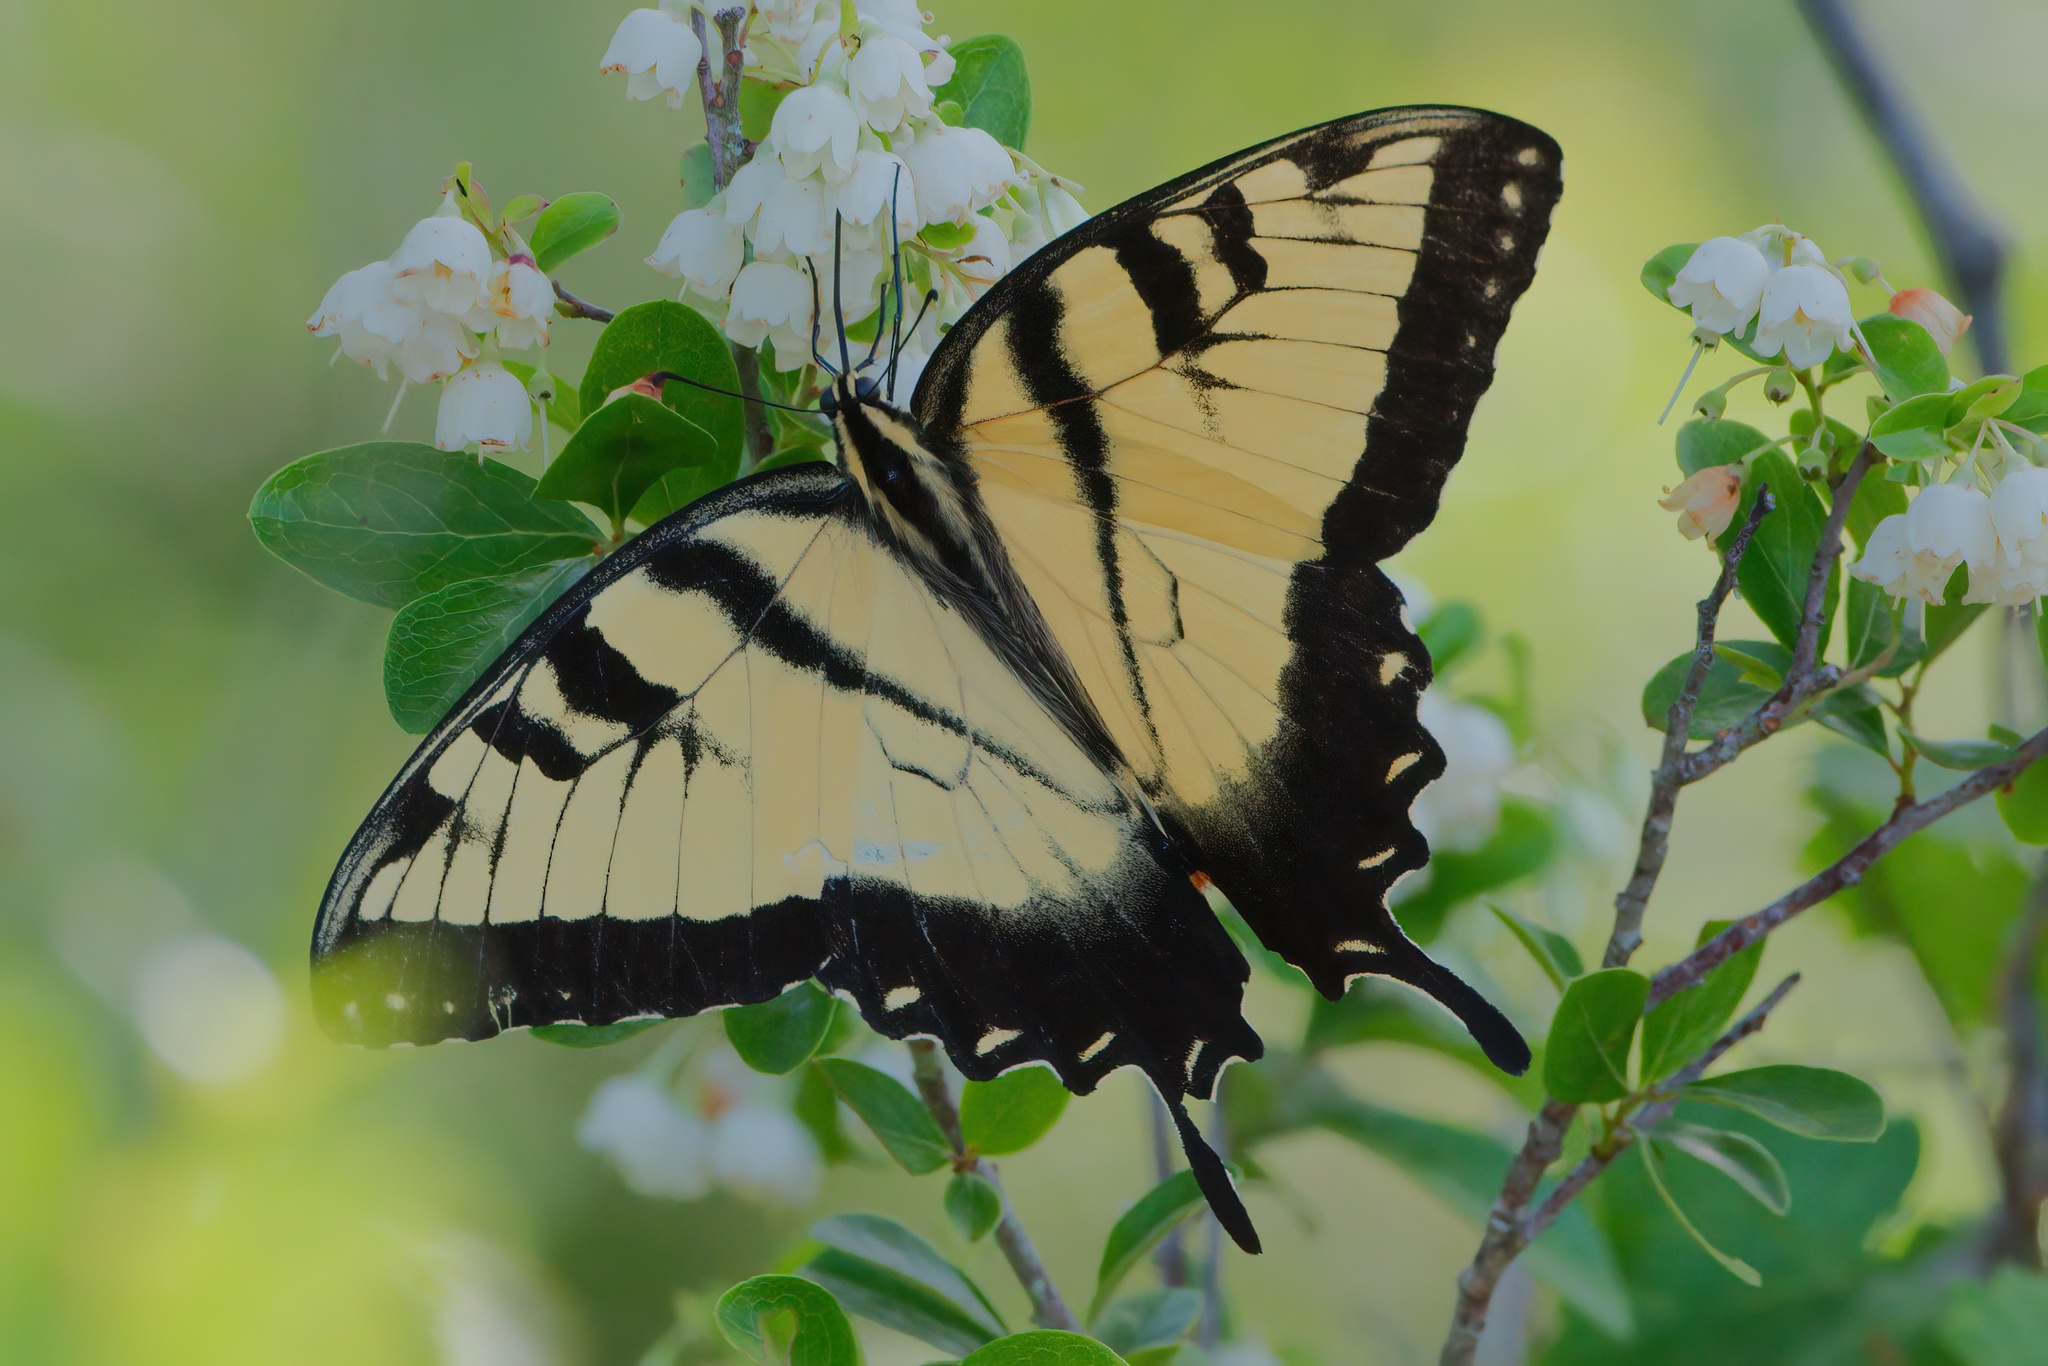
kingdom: Animalia
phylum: Arthropoda
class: Insecta
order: Lepidoptera
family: Papilionidae
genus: Papilio
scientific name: Papilio glaucus
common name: Tiger swallowtail
